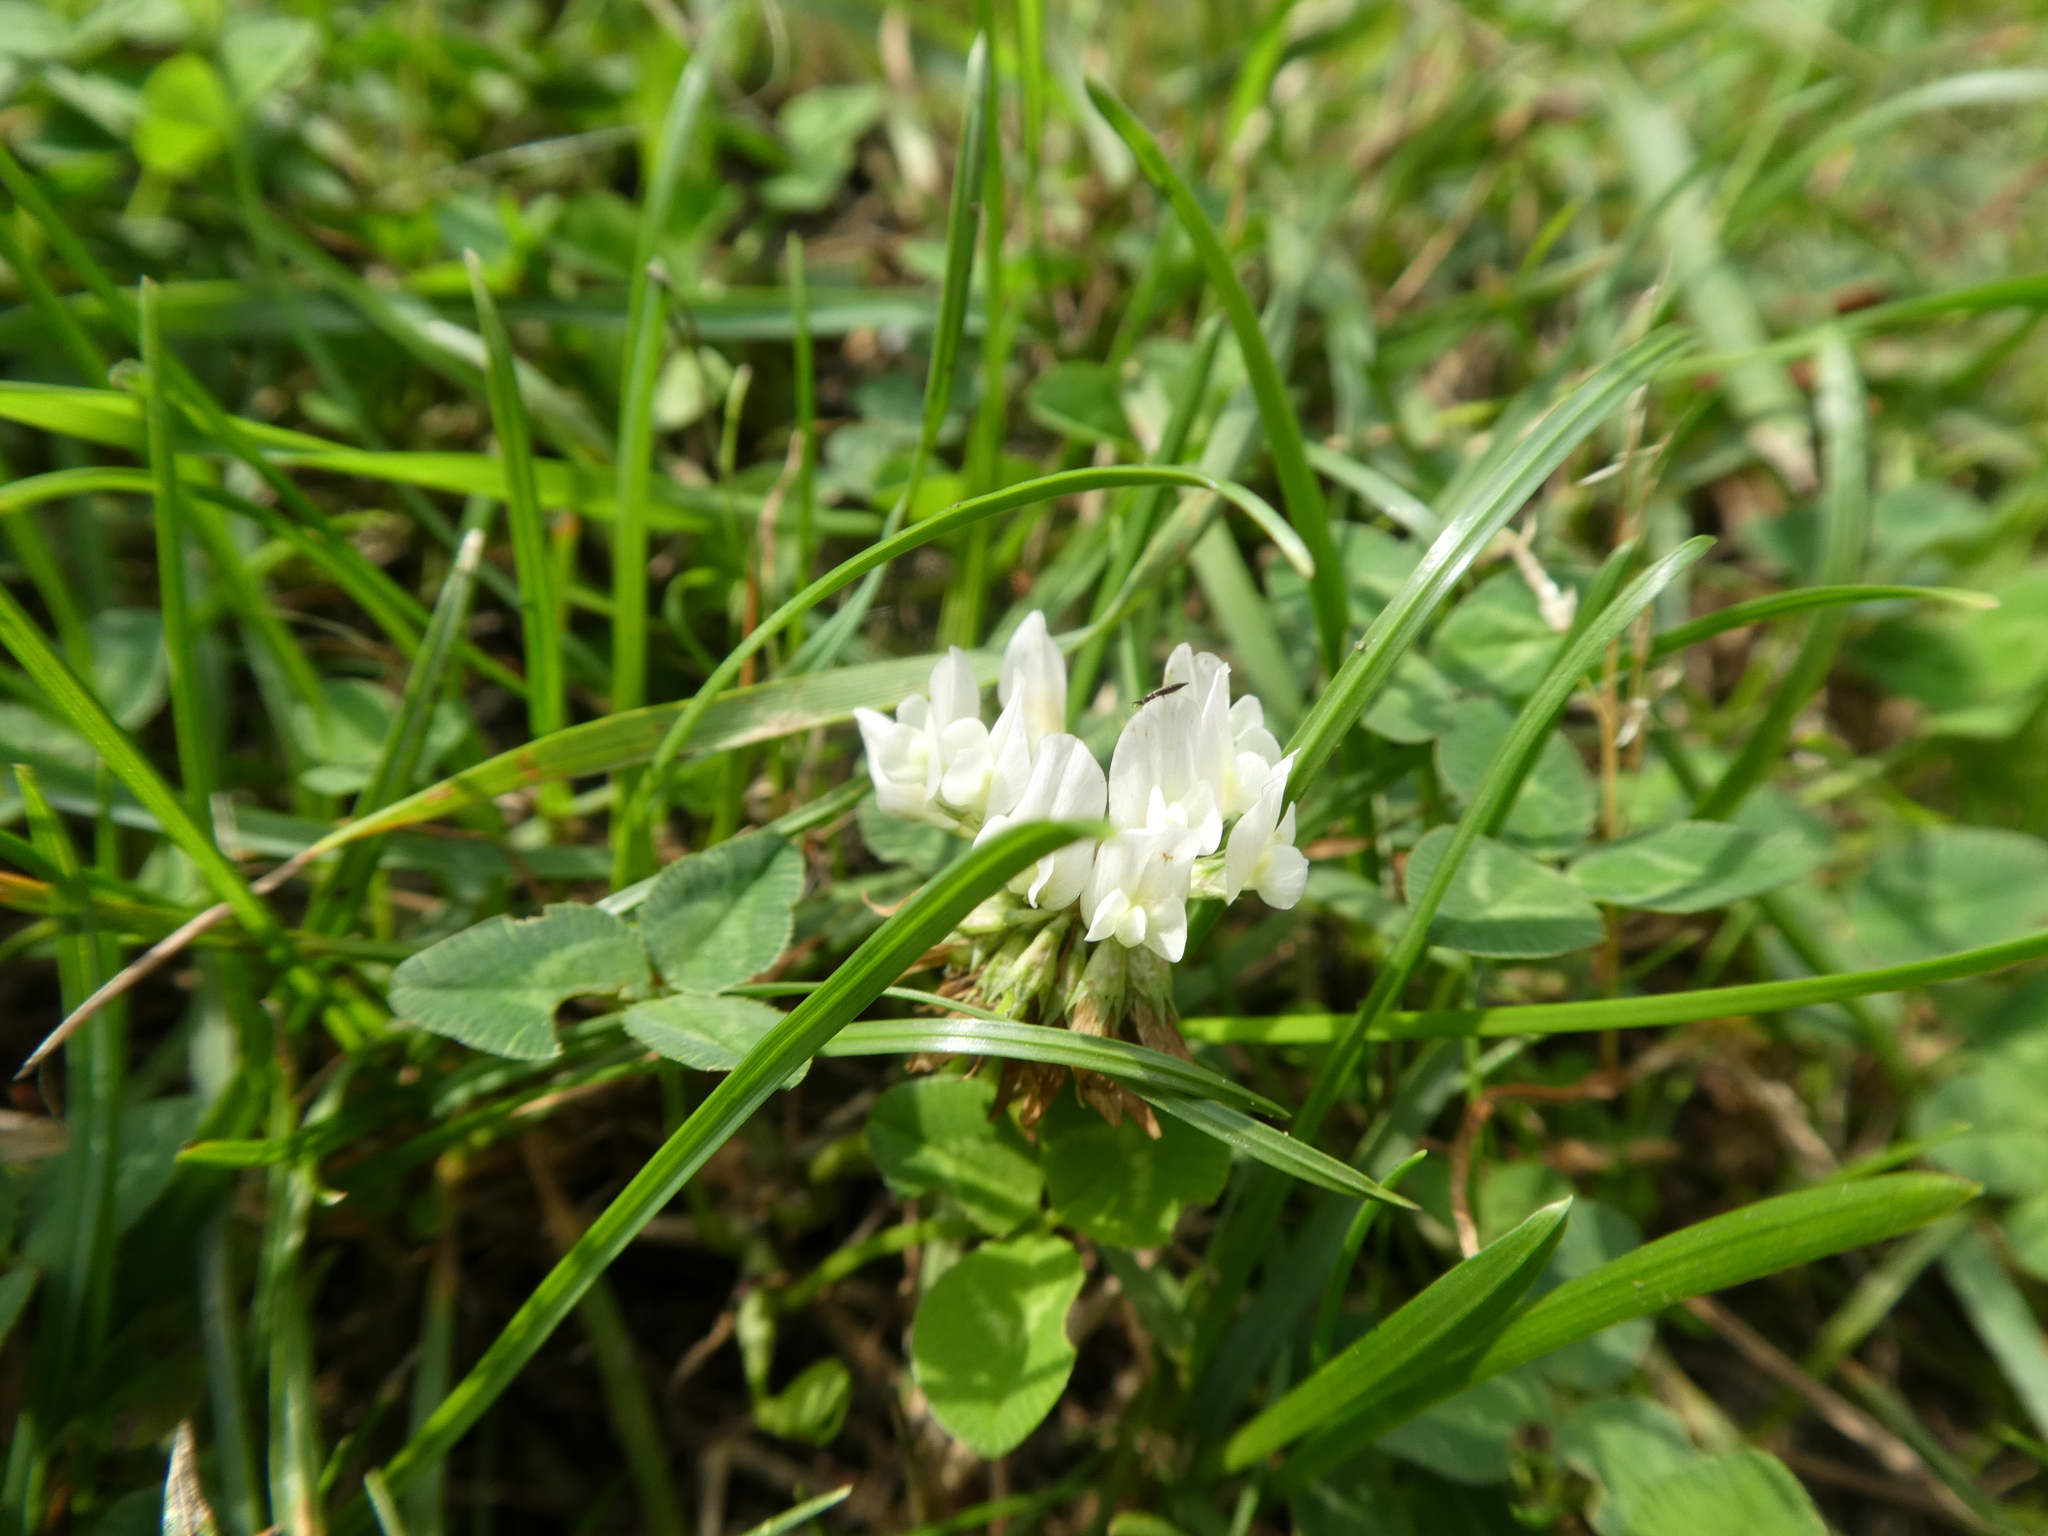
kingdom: Plantae
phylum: Tracheophyta
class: Magnoliopsida
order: Fabales
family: Fabaceae
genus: Trifolium
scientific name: Trifolium repens
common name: White clover
